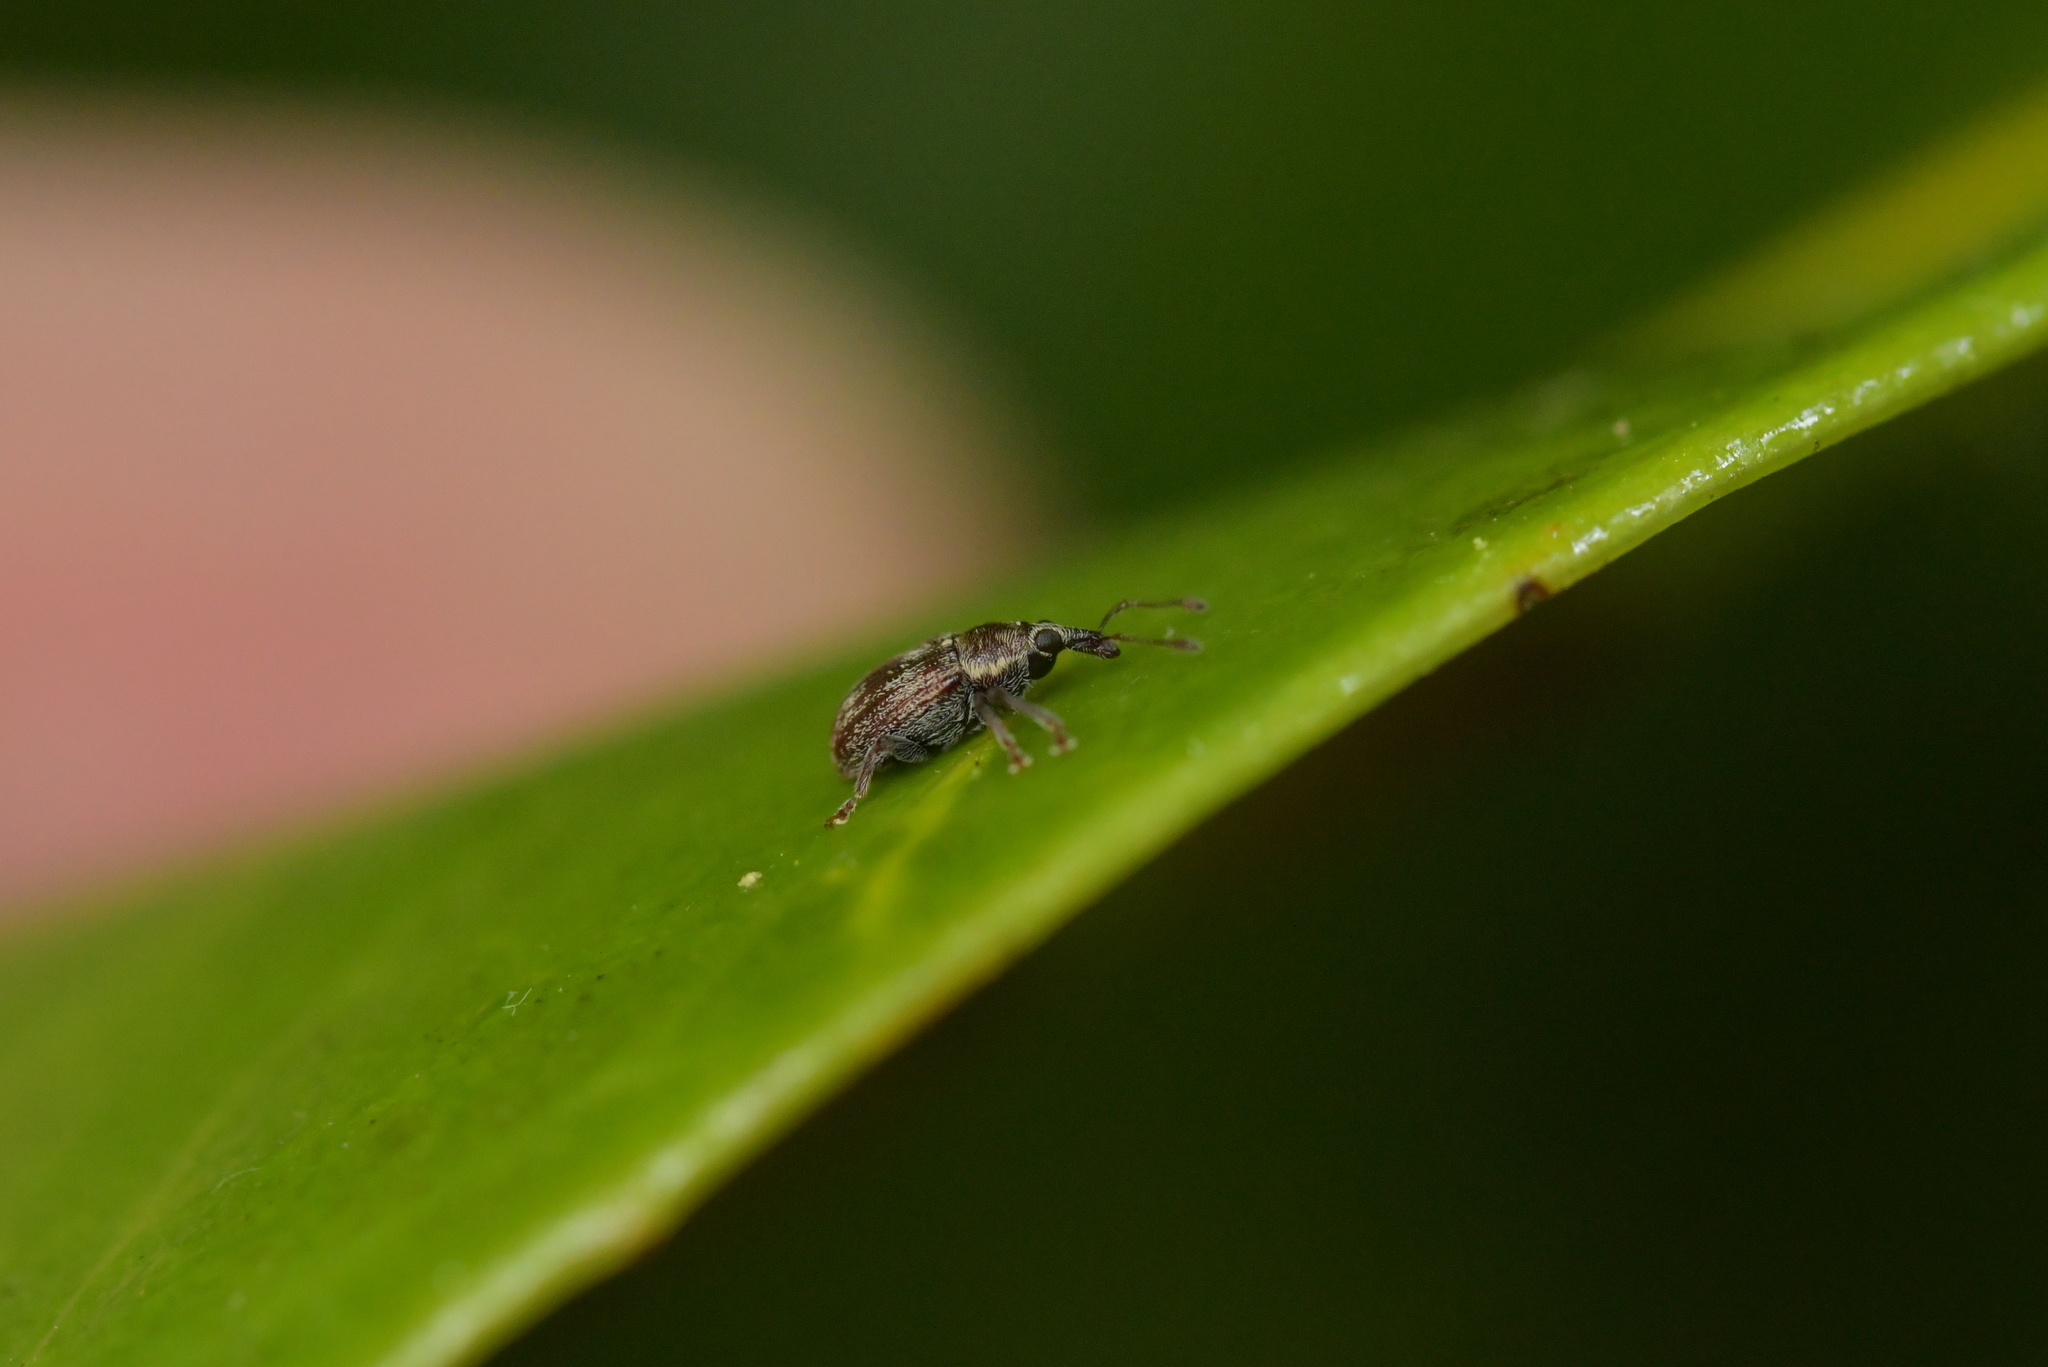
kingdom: Animalia
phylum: Arthropoda
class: Insecta
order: Coleoptera
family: Curculionidae
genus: Neomycta
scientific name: Neomycta rubida
